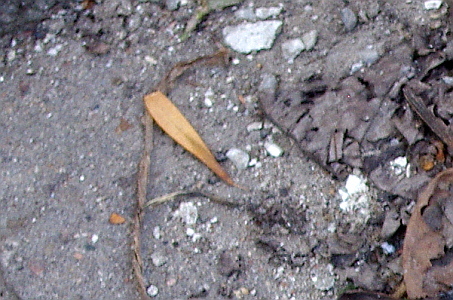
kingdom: Plantae
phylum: Tracheophyta
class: Magnoliopsida
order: Lamiales
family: Oleaceae
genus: Fraxinus
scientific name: Fraxinus pennsylvanica
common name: Green ash
